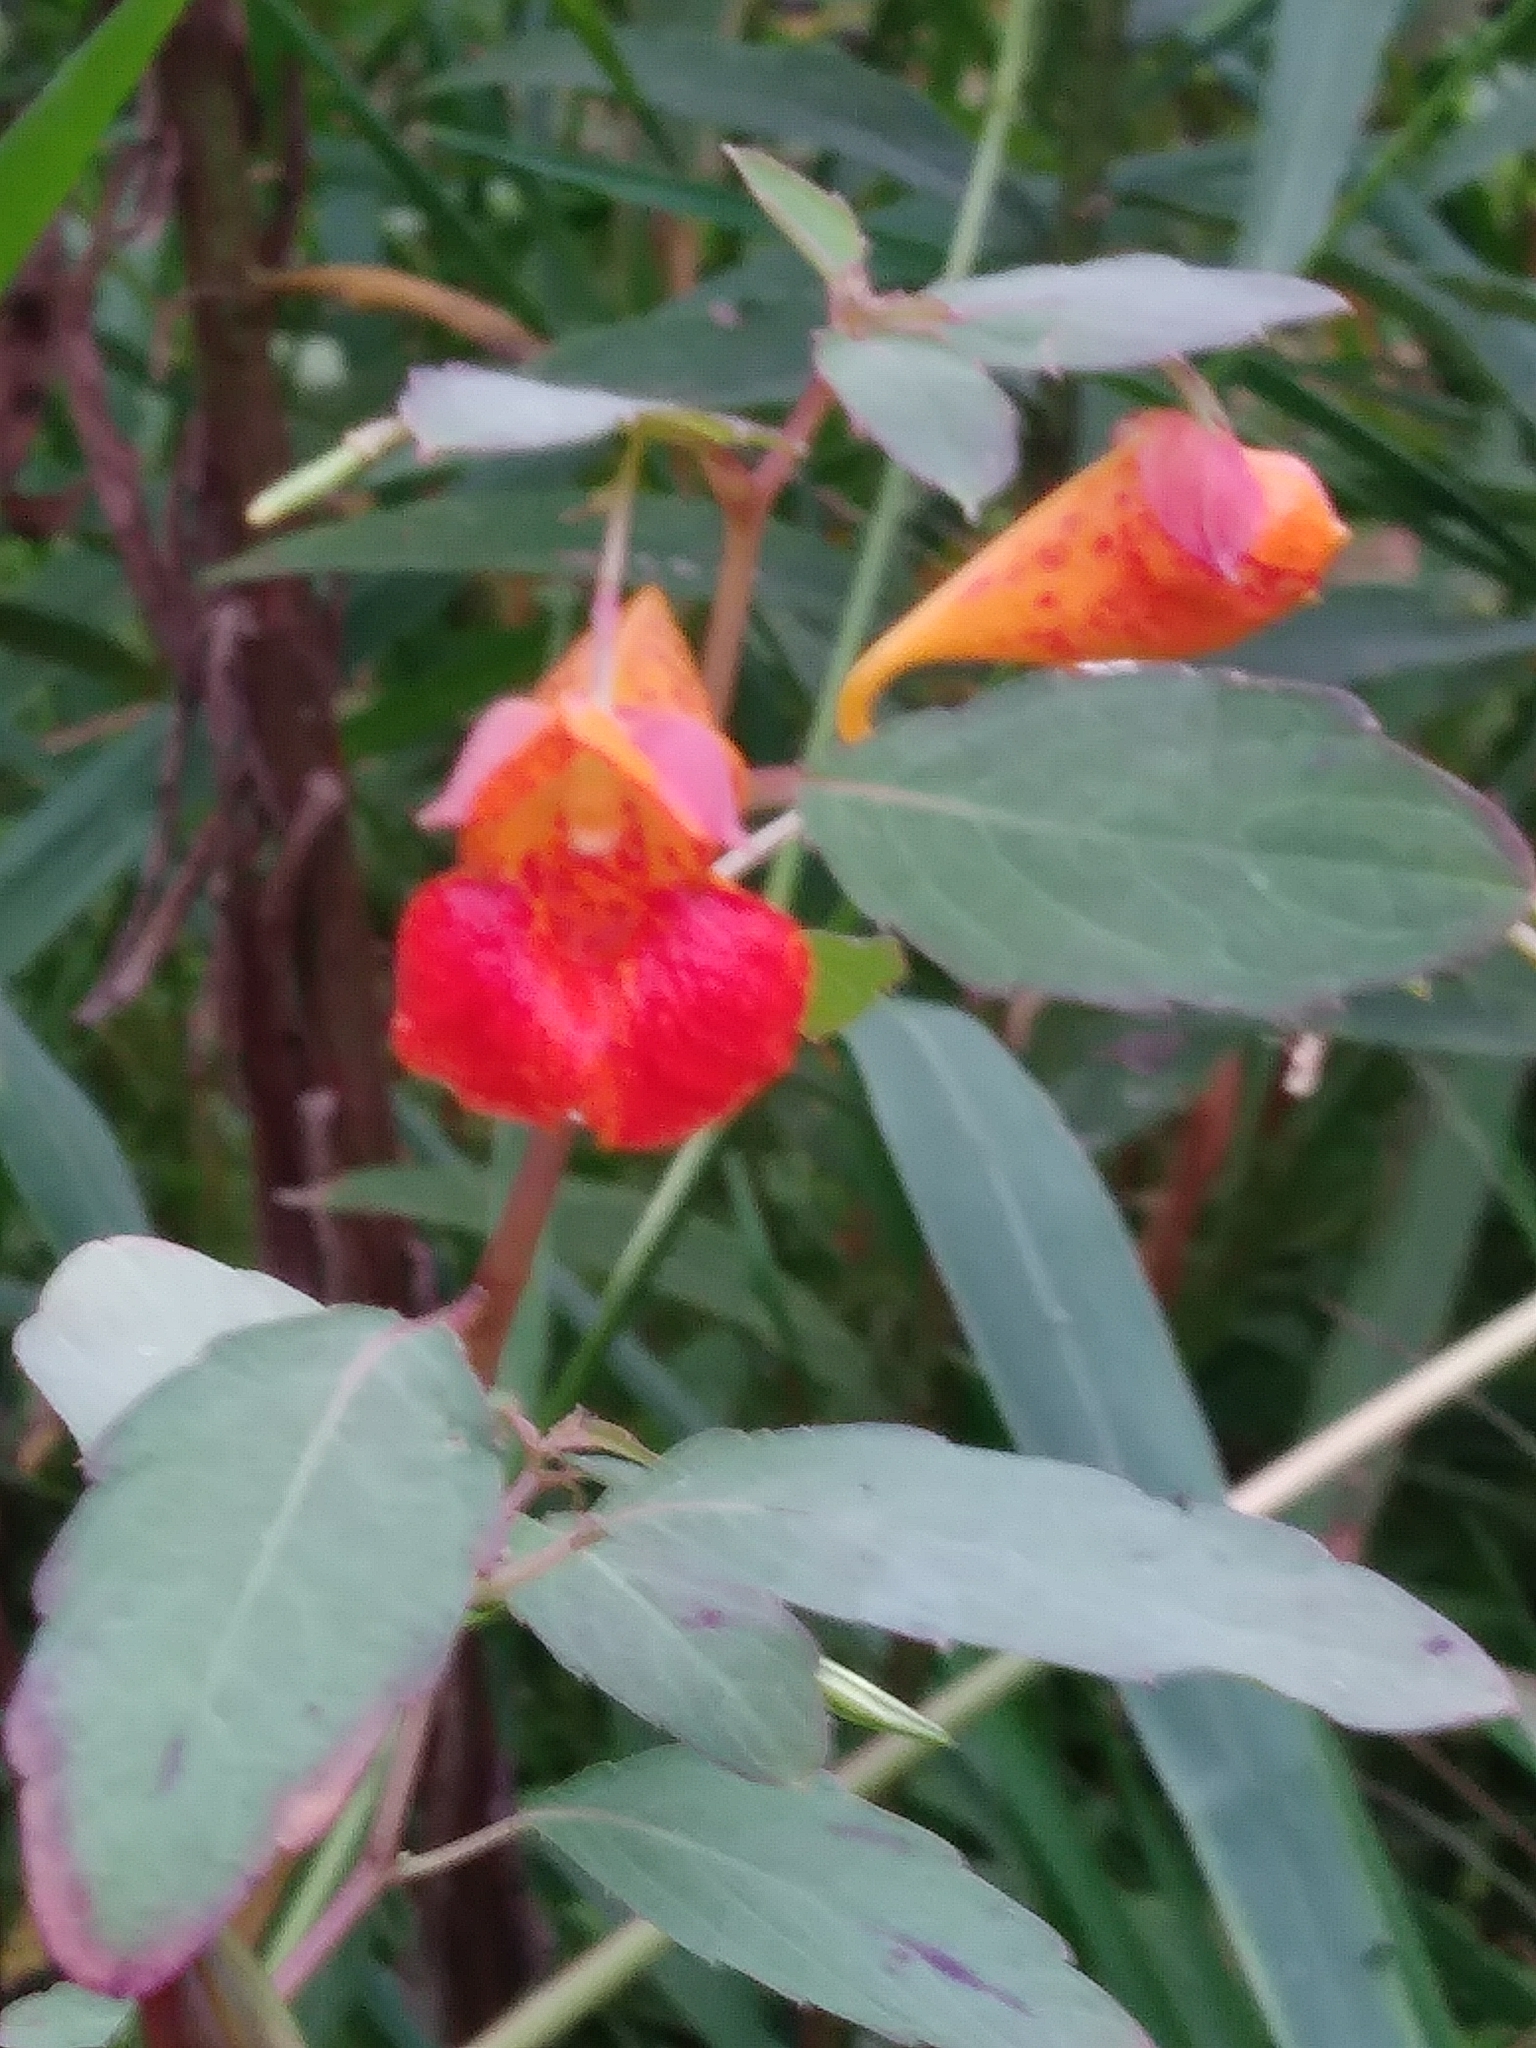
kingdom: Plantae
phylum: Tracheophyta
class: Magnoliopsida
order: Ericales
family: Balsaminaceae
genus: Impatiens
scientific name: Impatiens capensis
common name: Orange balsam
